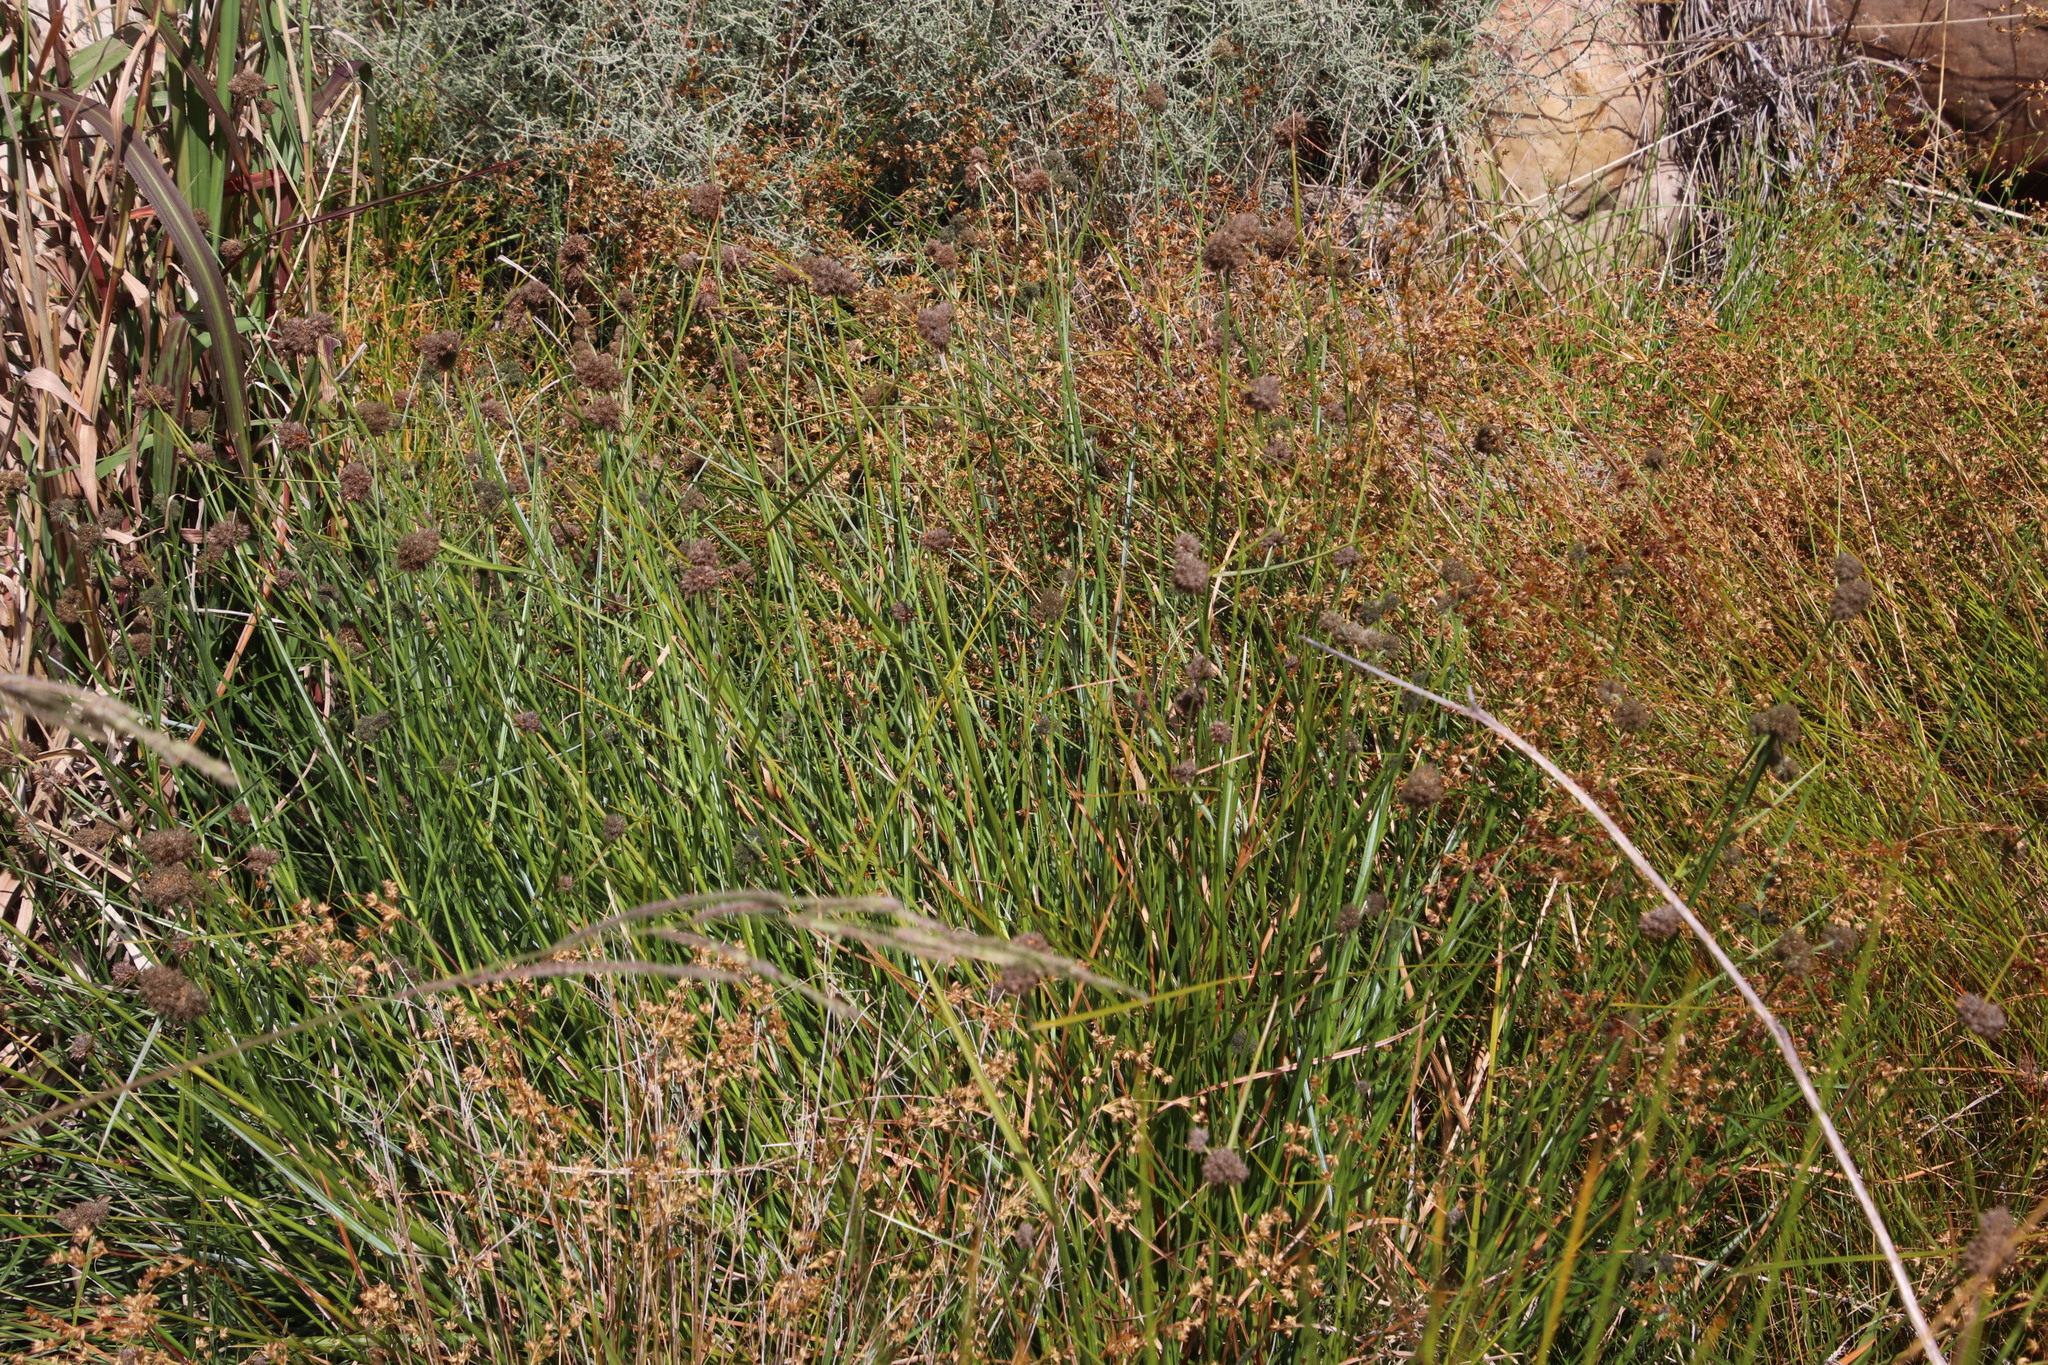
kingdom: Plantae
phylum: Tracheophyta
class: Liliopsida
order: Poales
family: Cyperaceae
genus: Fuirena
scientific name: Fuirena hirsuta
